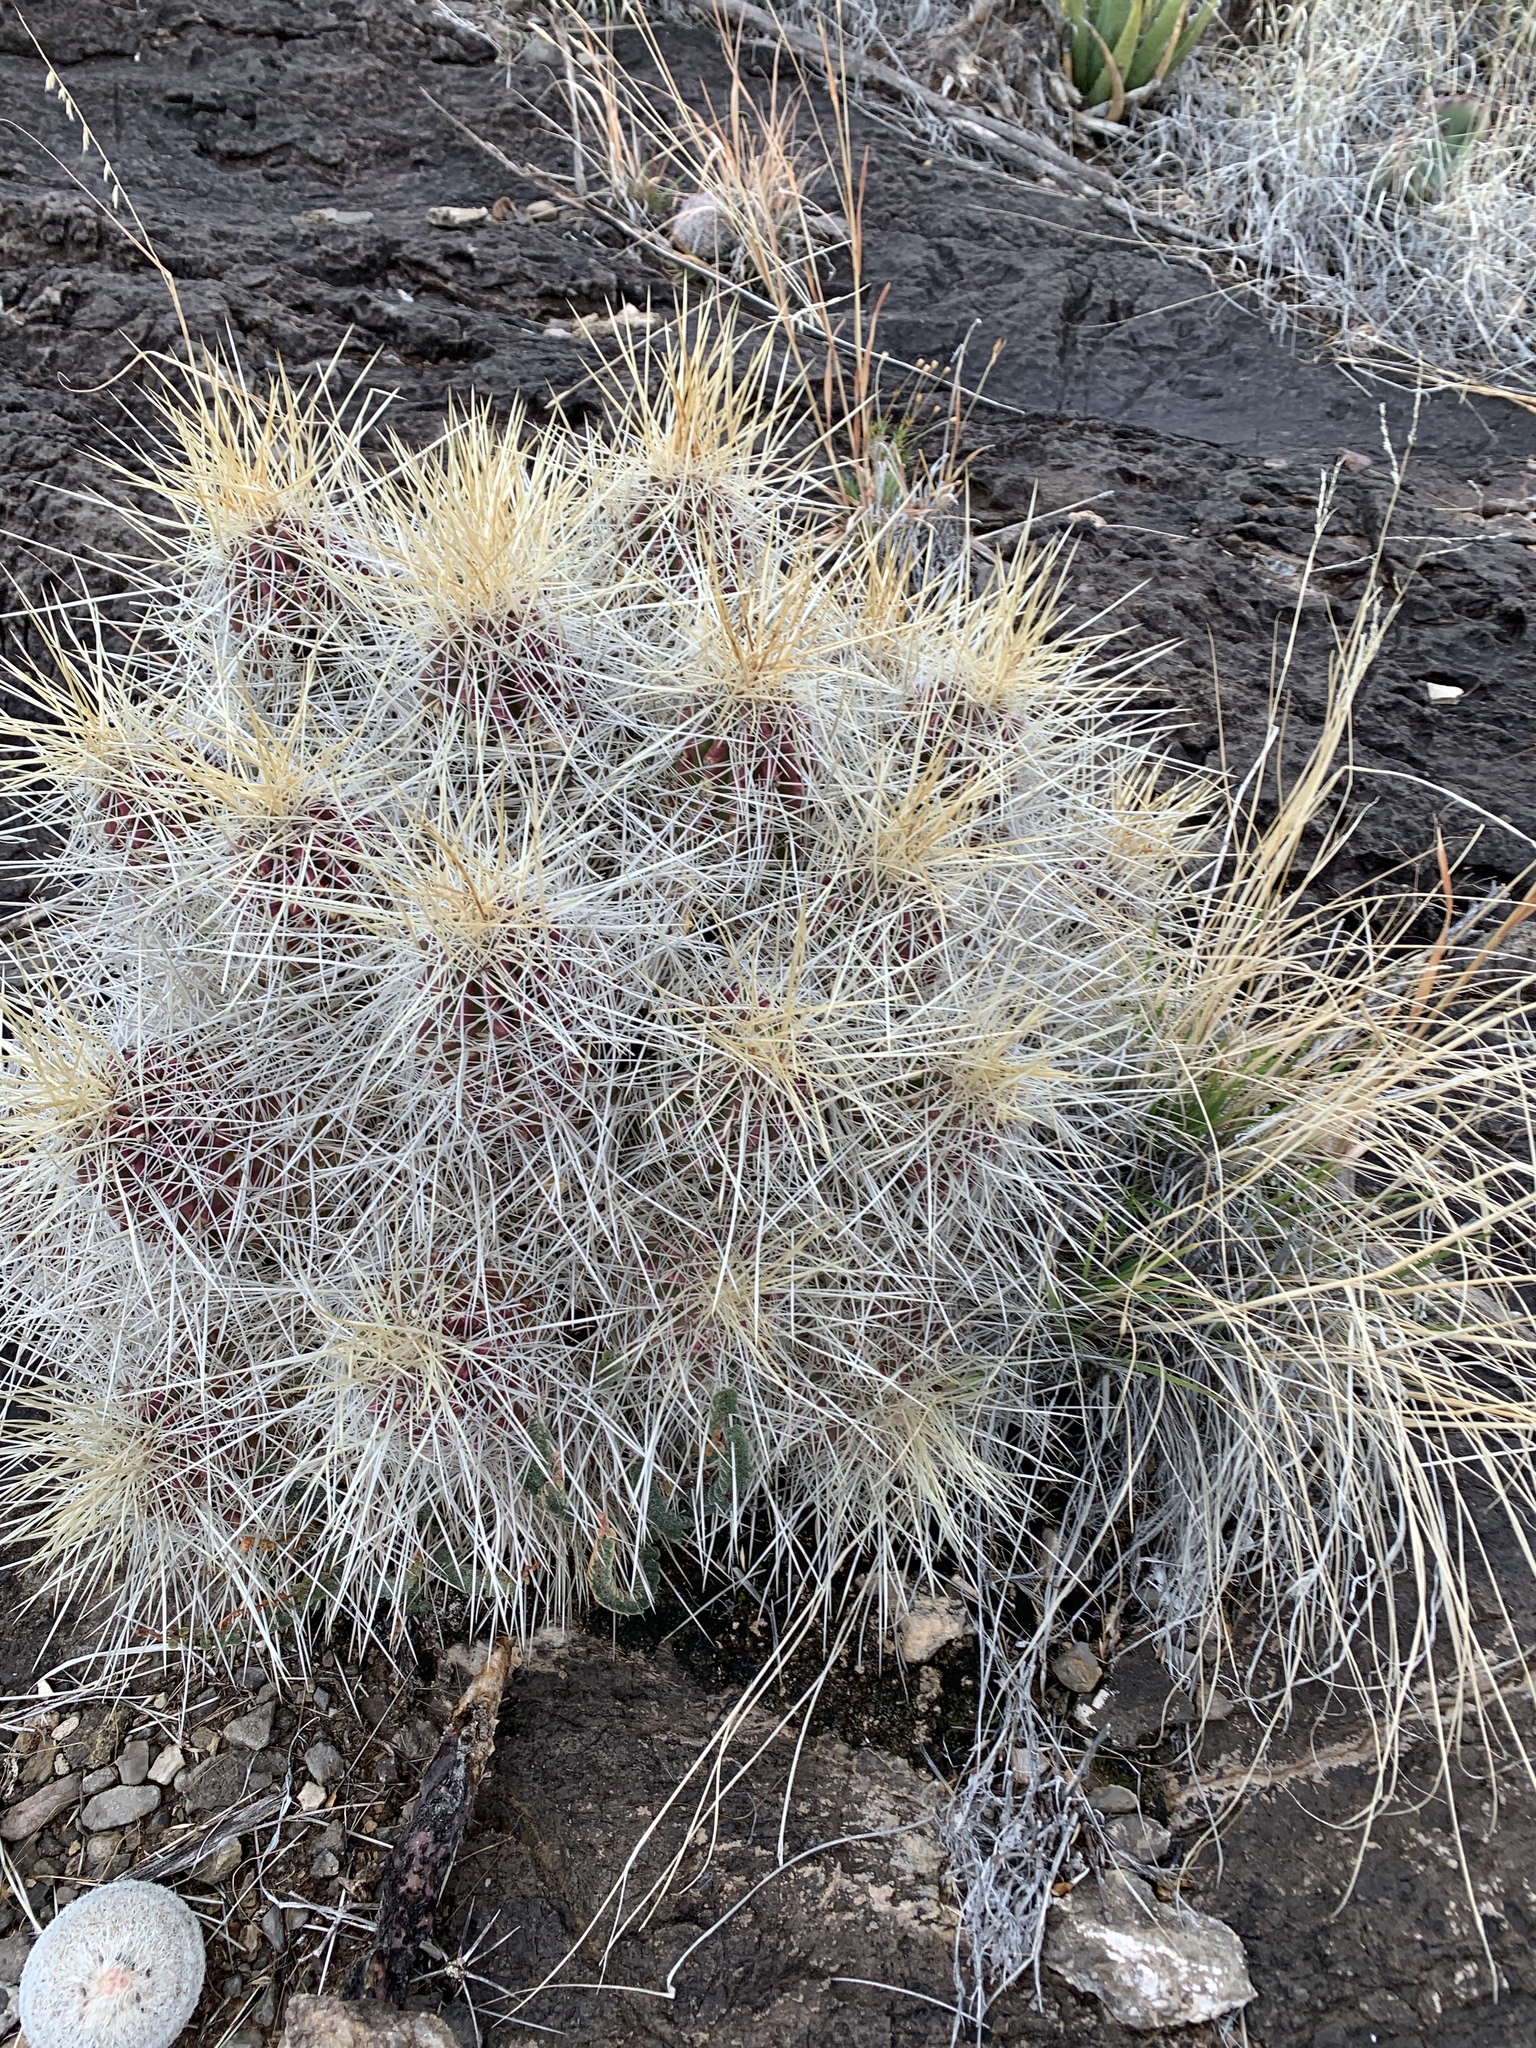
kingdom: Plantae
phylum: Tracheophyta
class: Magnoliopsida
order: Caryophyllales
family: Cactaceae
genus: Echinocereus
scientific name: Echinocereus stramineus
